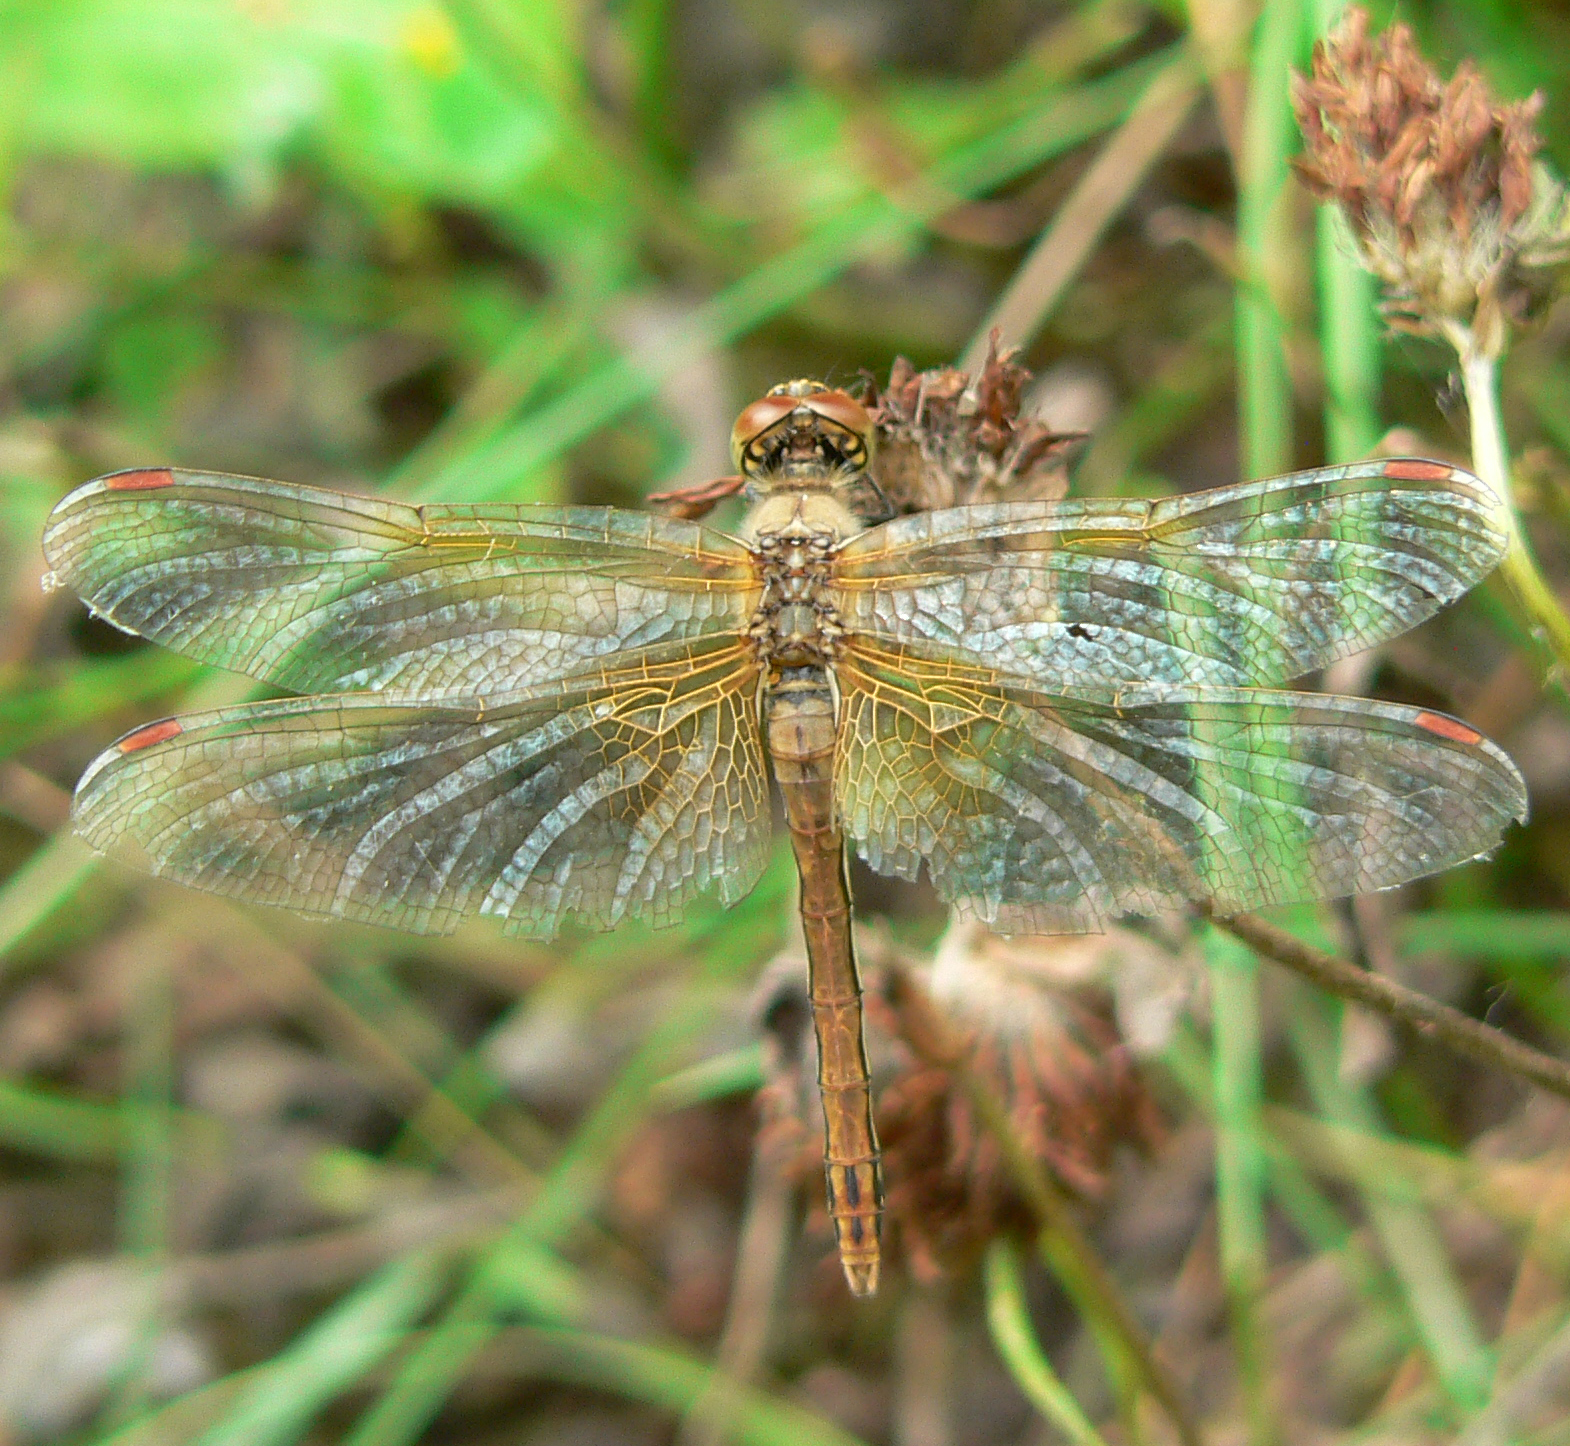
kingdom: Animalia
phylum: Arthropoda
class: Insecta
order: Odonata
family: Libellulidae
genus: Sympetrum
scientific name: Sympetrum flaveolum
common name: Yellow-winged darter
